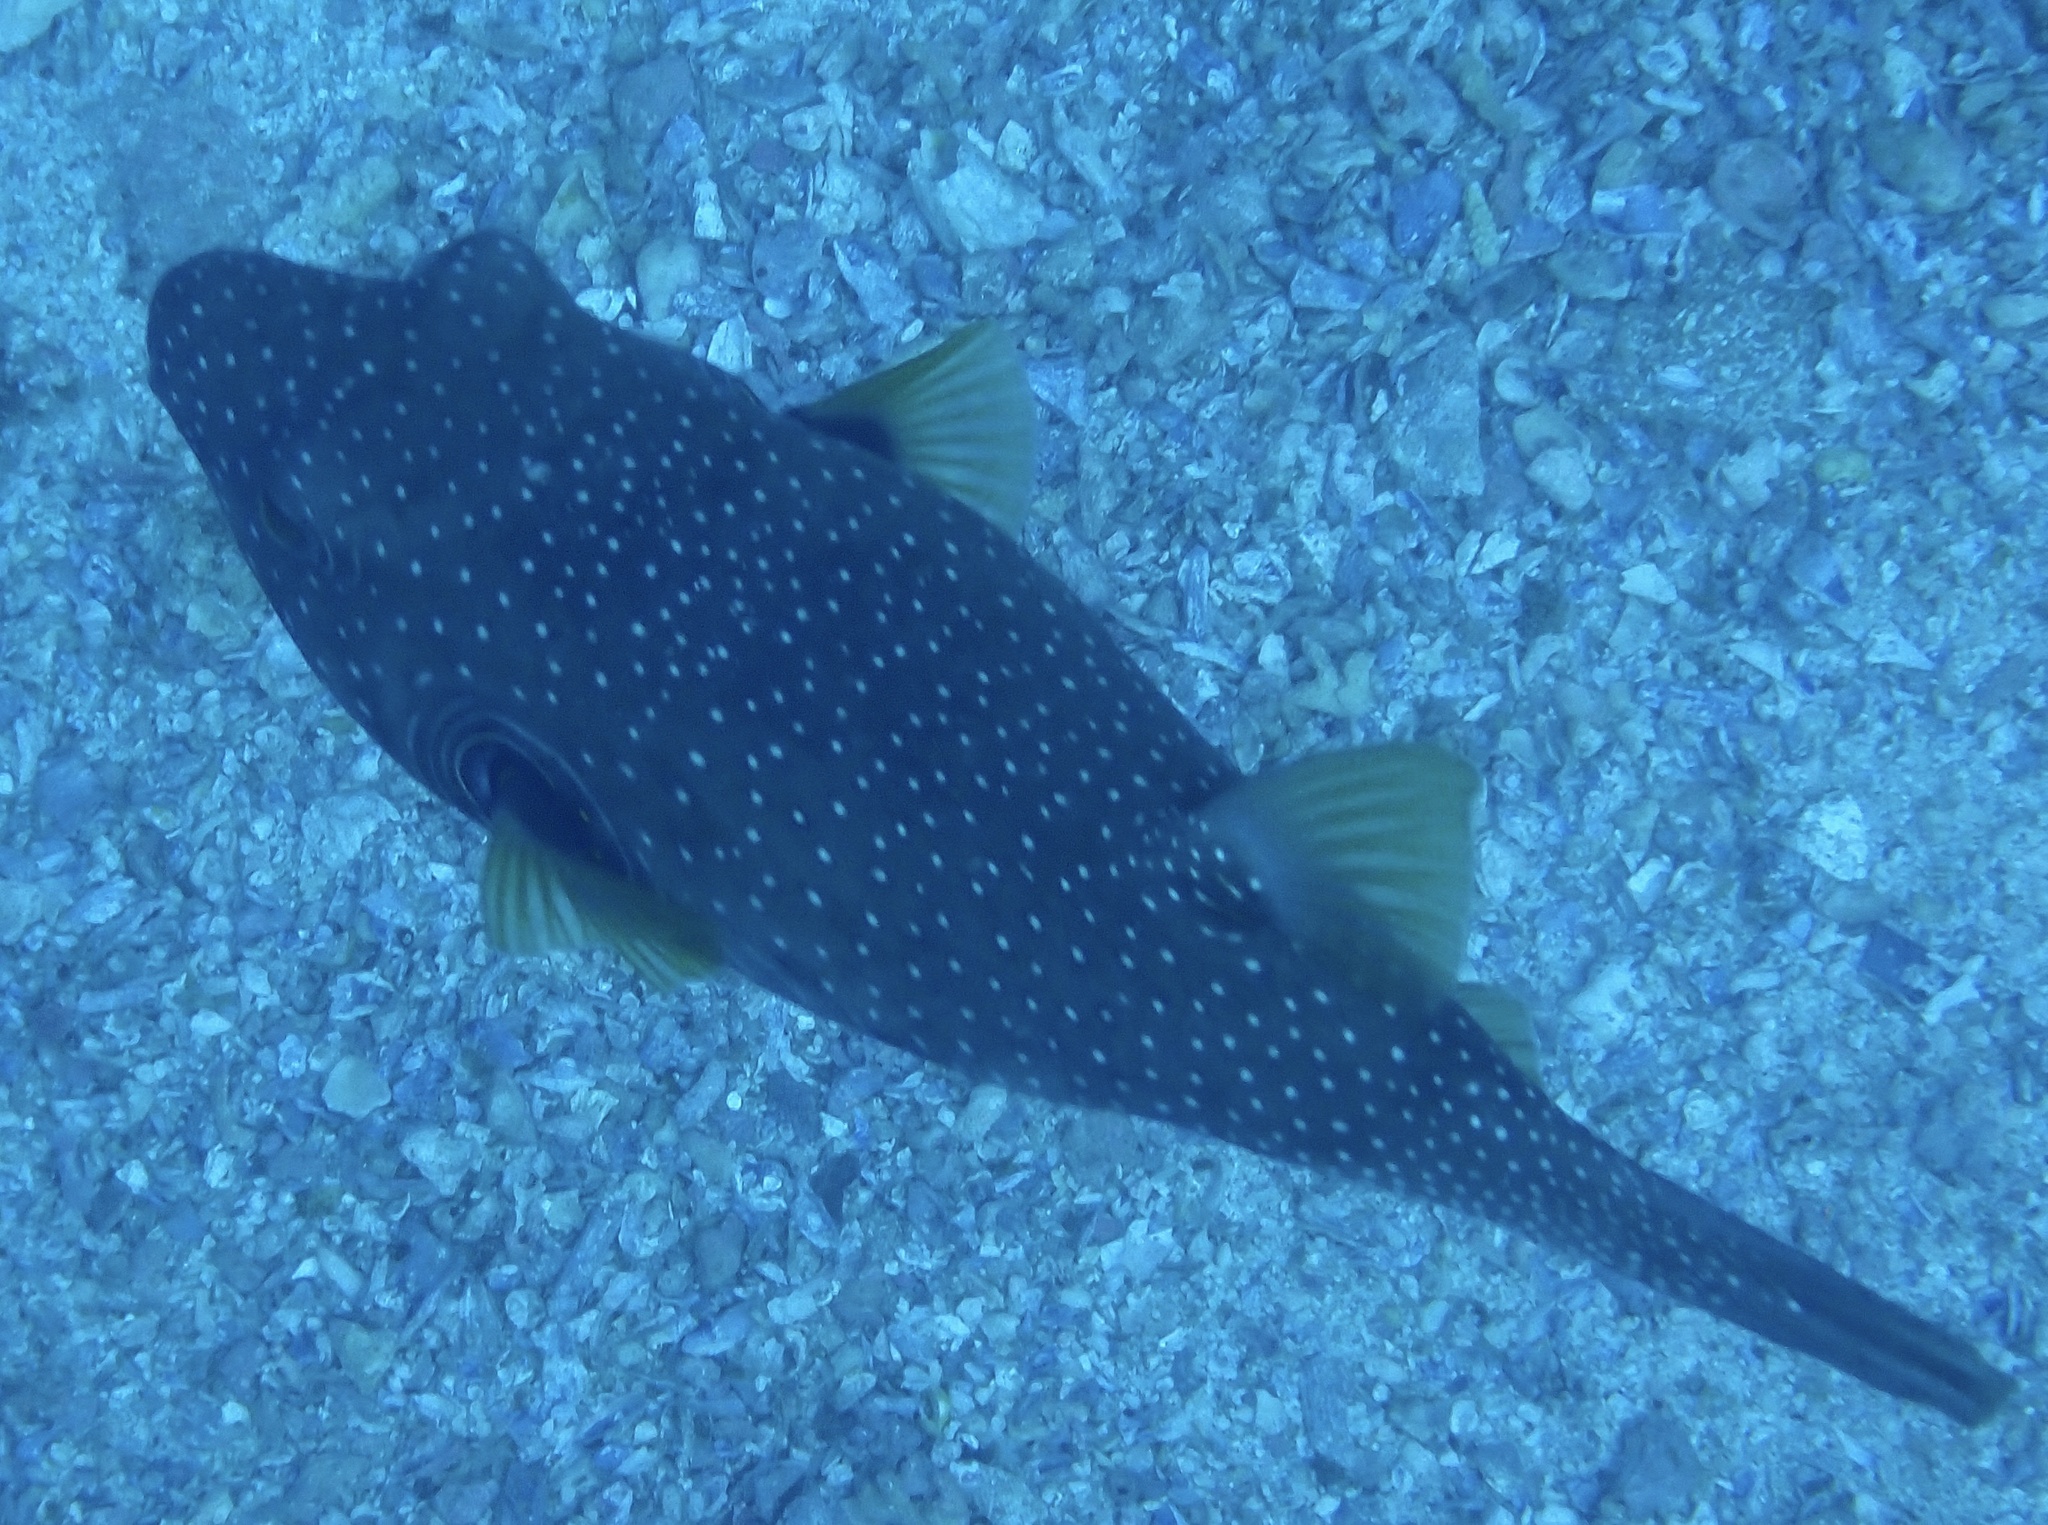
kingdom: Animalia
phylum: Chordata
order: Tetraodontiformes
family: Tetraodontidae
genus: Arothron
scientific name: Arothron hispidus
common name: Stripebelly puffer
